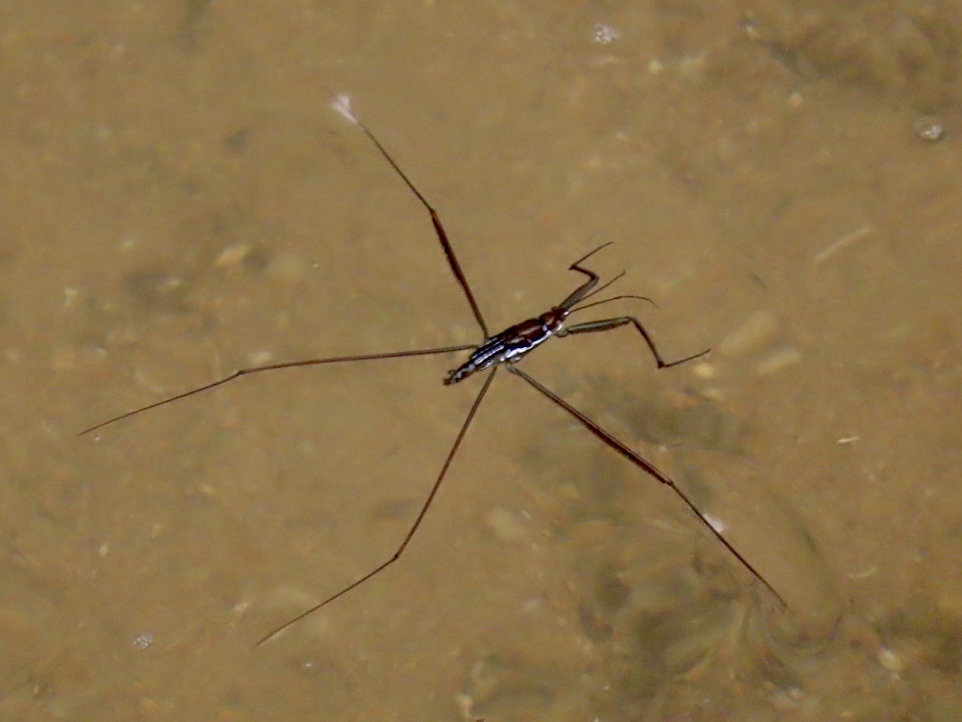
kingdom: Animalia
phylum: Arthropoda
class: Insecta
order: Hemiptera
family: Gerridae
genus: Ptilomera
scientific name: Ptilomera tigrina
